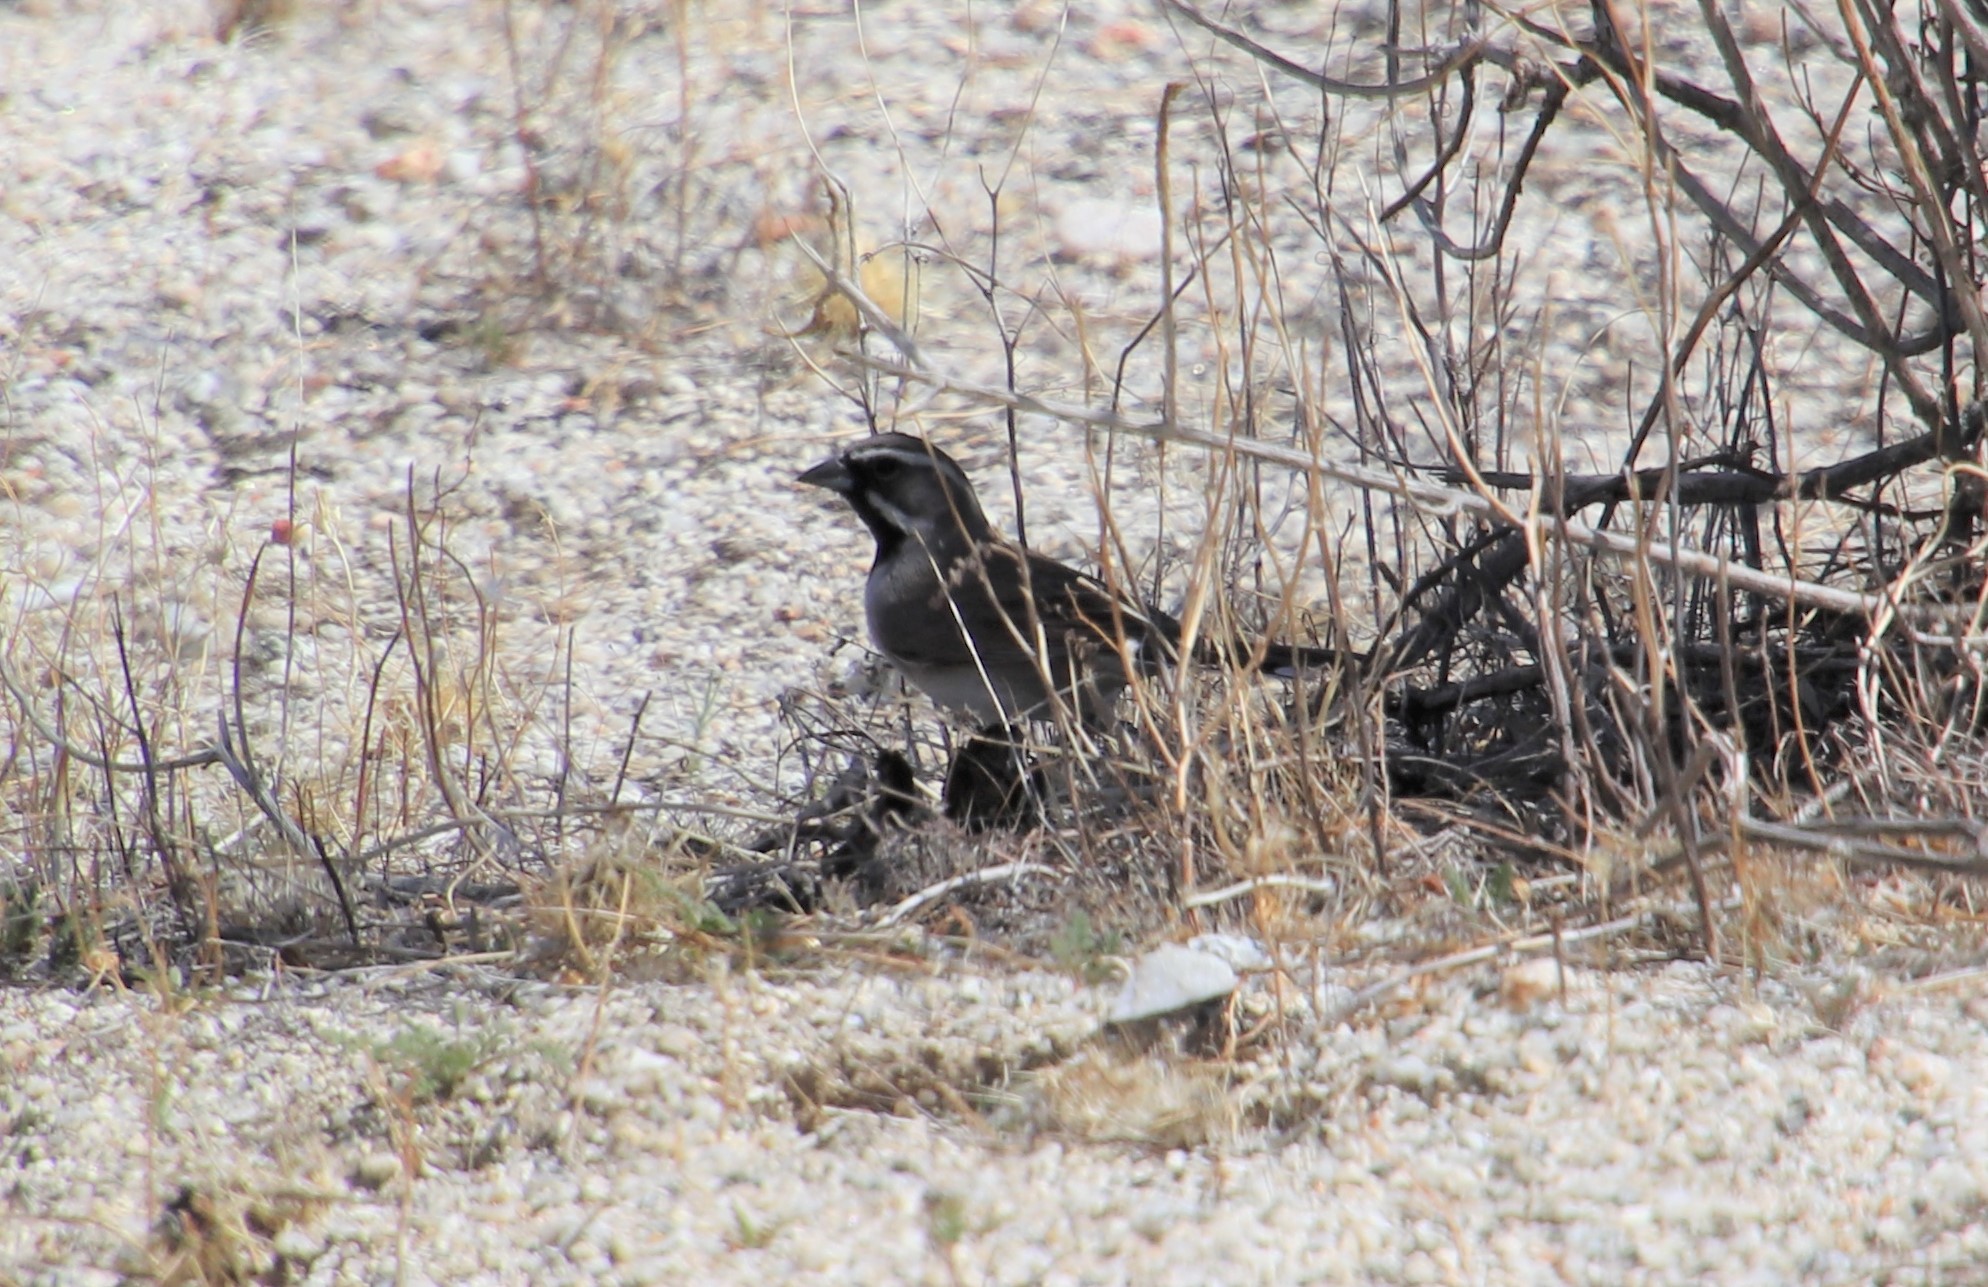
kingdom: Animalia
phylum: Chordata
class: Aves
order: Passeriformes
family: Passerellidae
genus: Amphispiza
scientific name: Amphispiza bilineata
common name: Black-throated sparrow
